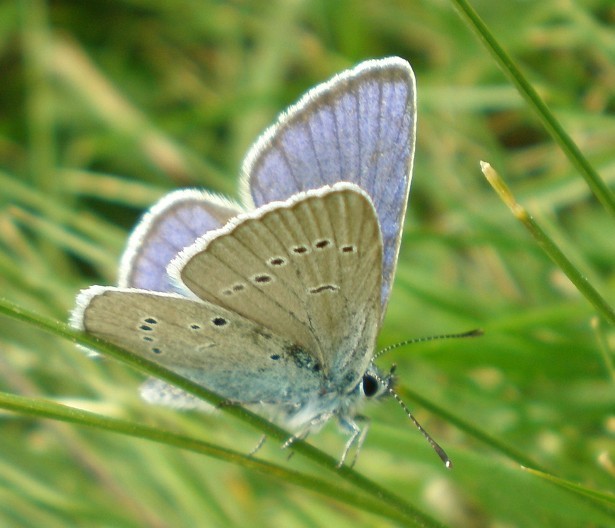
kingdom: Animalia
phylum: Arthropoda
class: Insecta
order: Lepidoptera
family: Lycaenidae
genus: Cyaniris
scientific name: Cyaniris semiargus
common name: Mazarine blue
